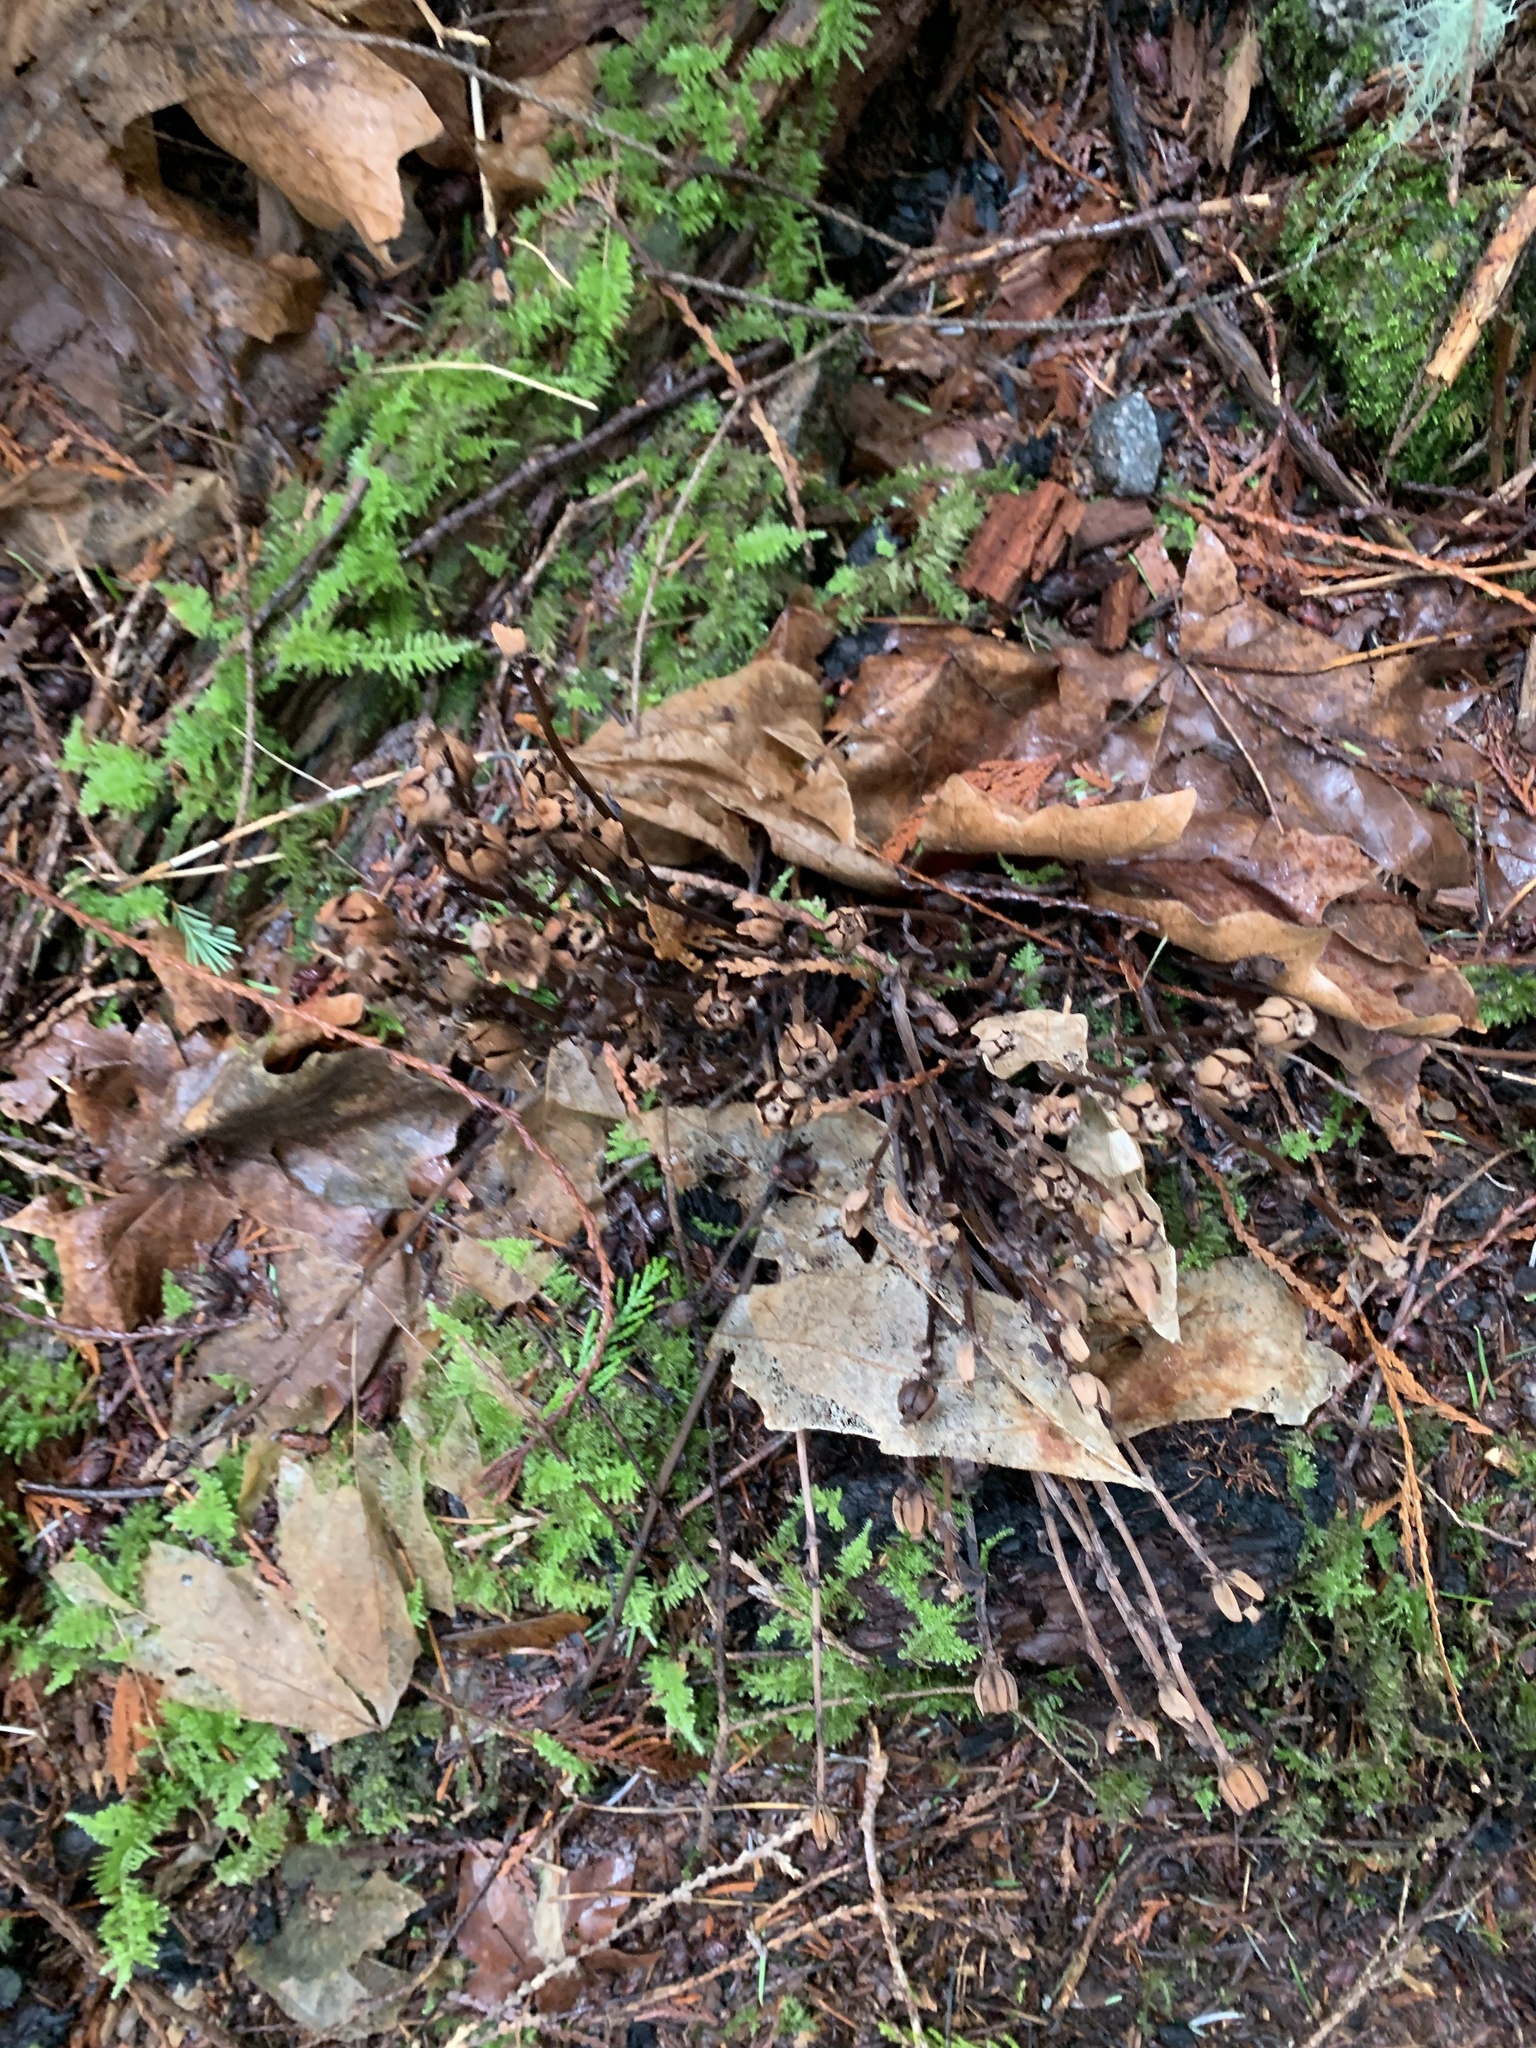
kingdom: Plantae
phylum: Tracheophyta
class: Magnoliopsida
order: Ericales
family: Ericaceae
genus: Monotropa
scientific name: Monotropa uniflora
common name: Convulsion root
